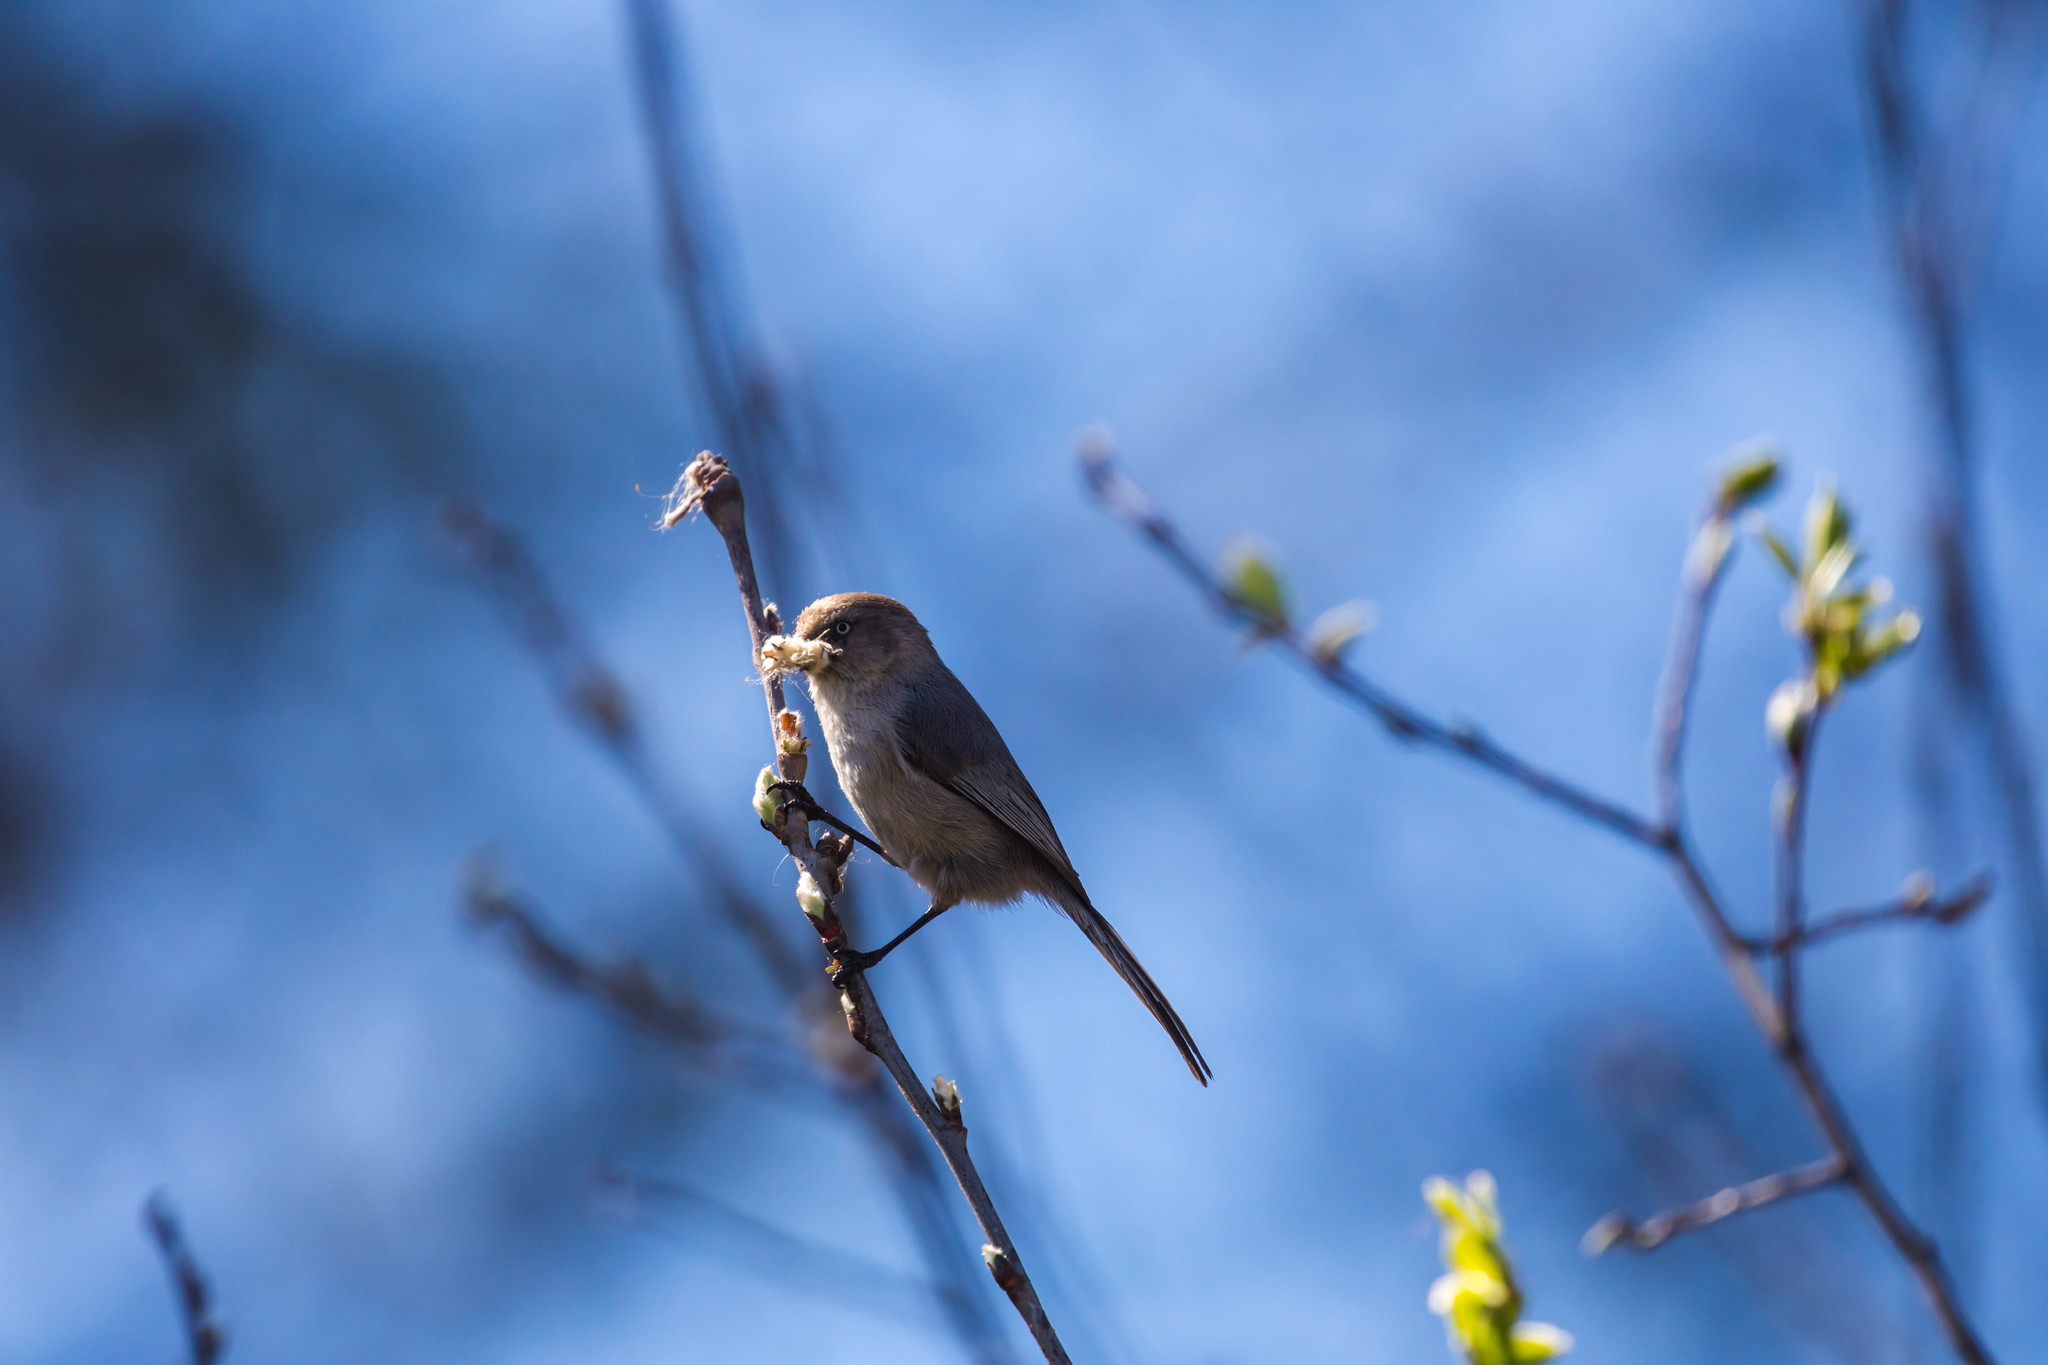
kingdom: Animalia
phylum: Chordata
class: Aves
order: Passeriformes
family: Aegithalidae
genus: Psaltriparus
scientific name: Psaltriparus minimus
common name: American bushtit
